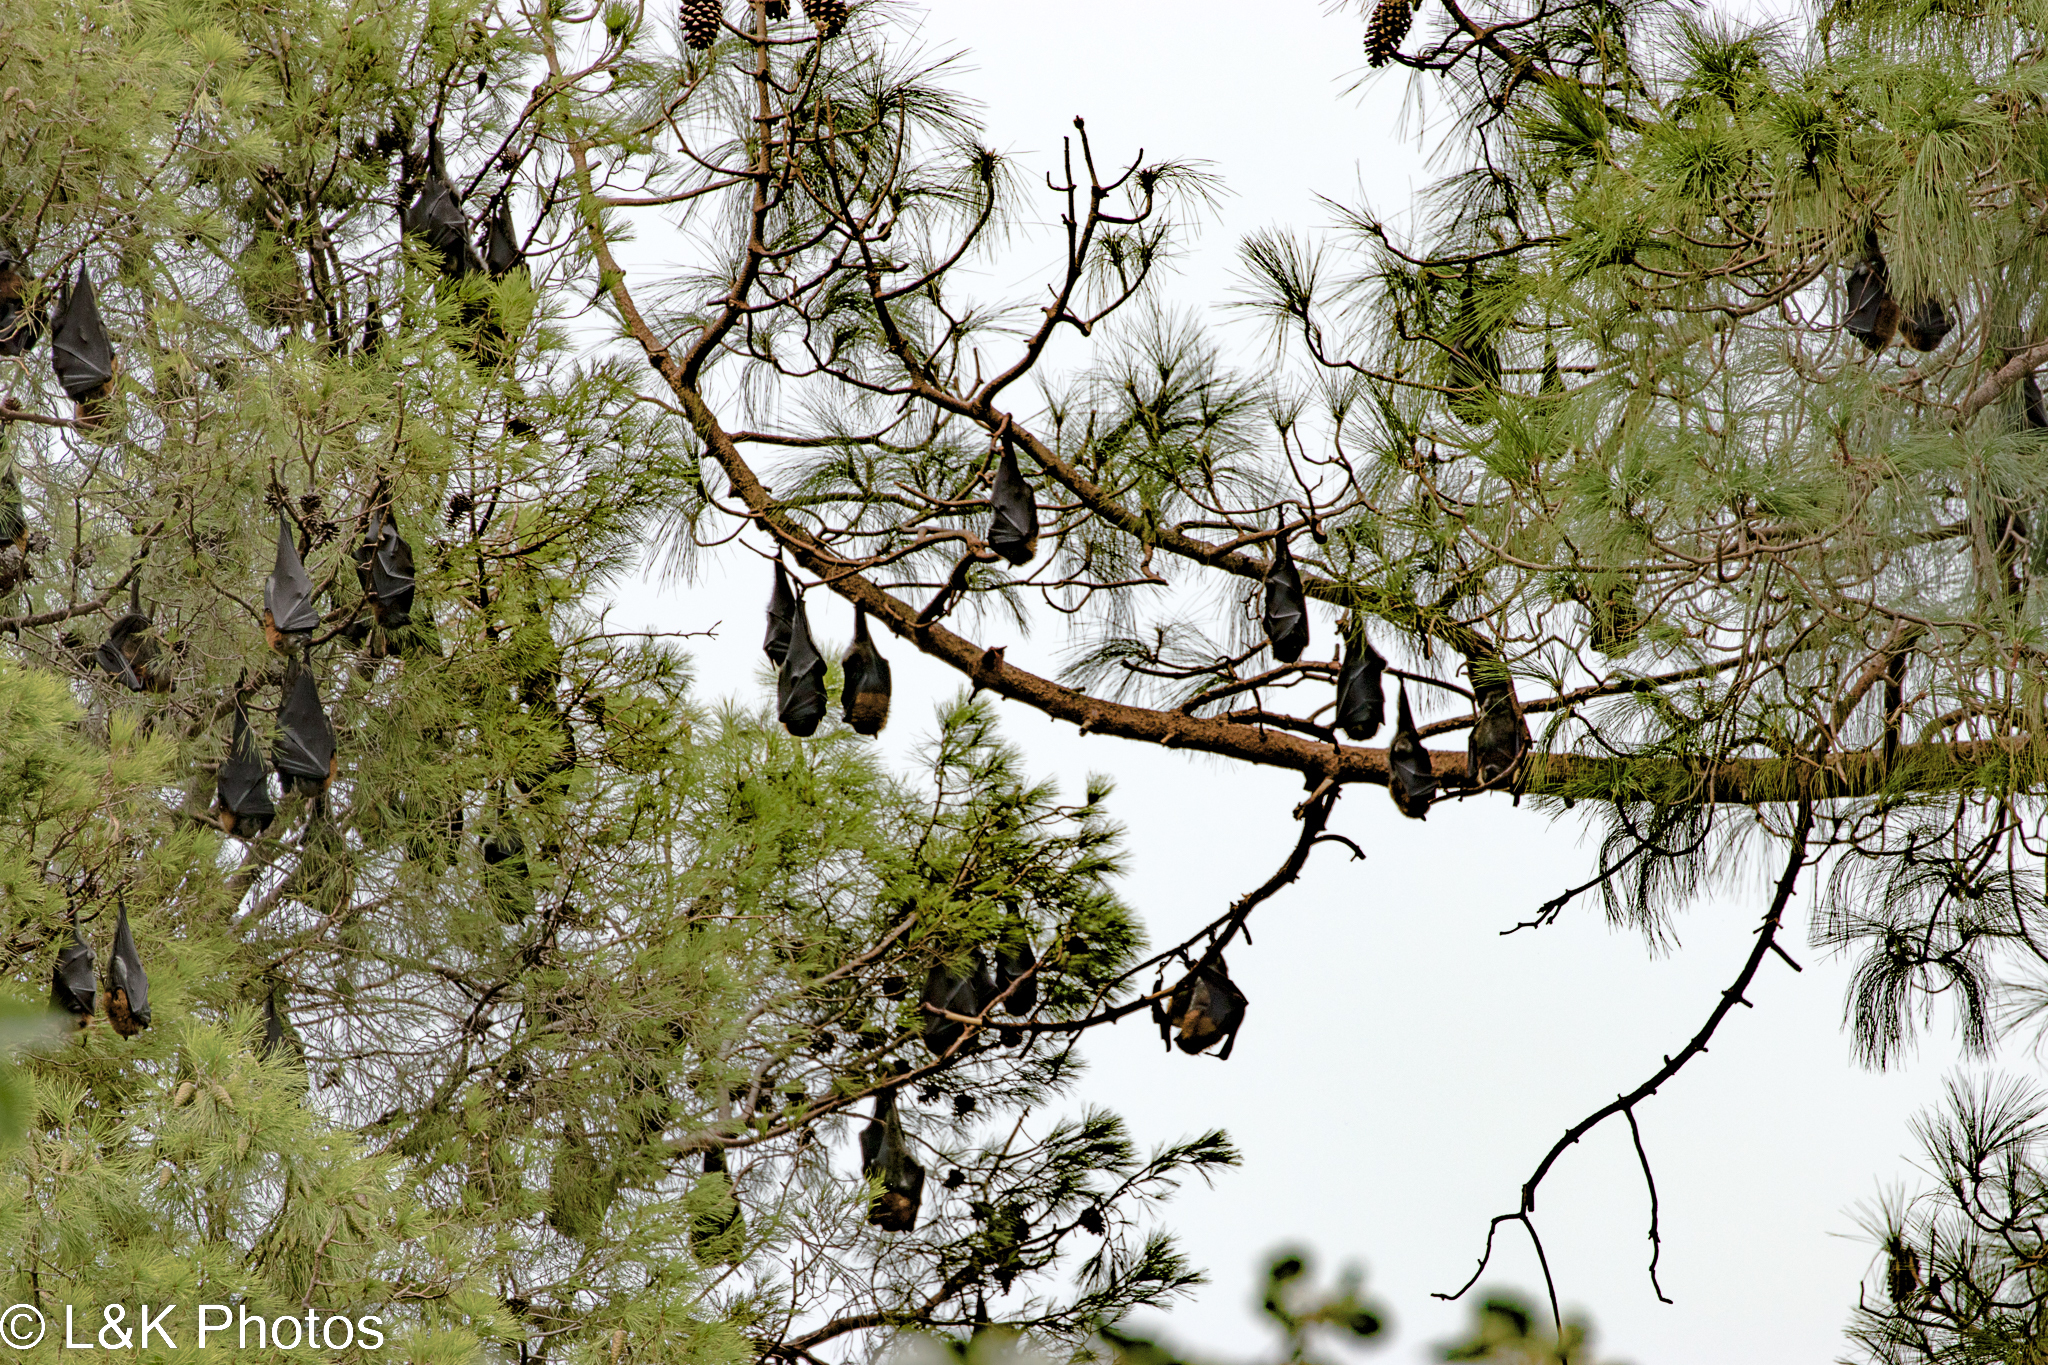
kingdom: Animalia
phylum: Chordata
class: Mammalia
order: Chiroptera
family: Pteropodidae
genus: Pteropus
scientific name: Pteropus poliocephalus
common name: Gray-headed flying fox
